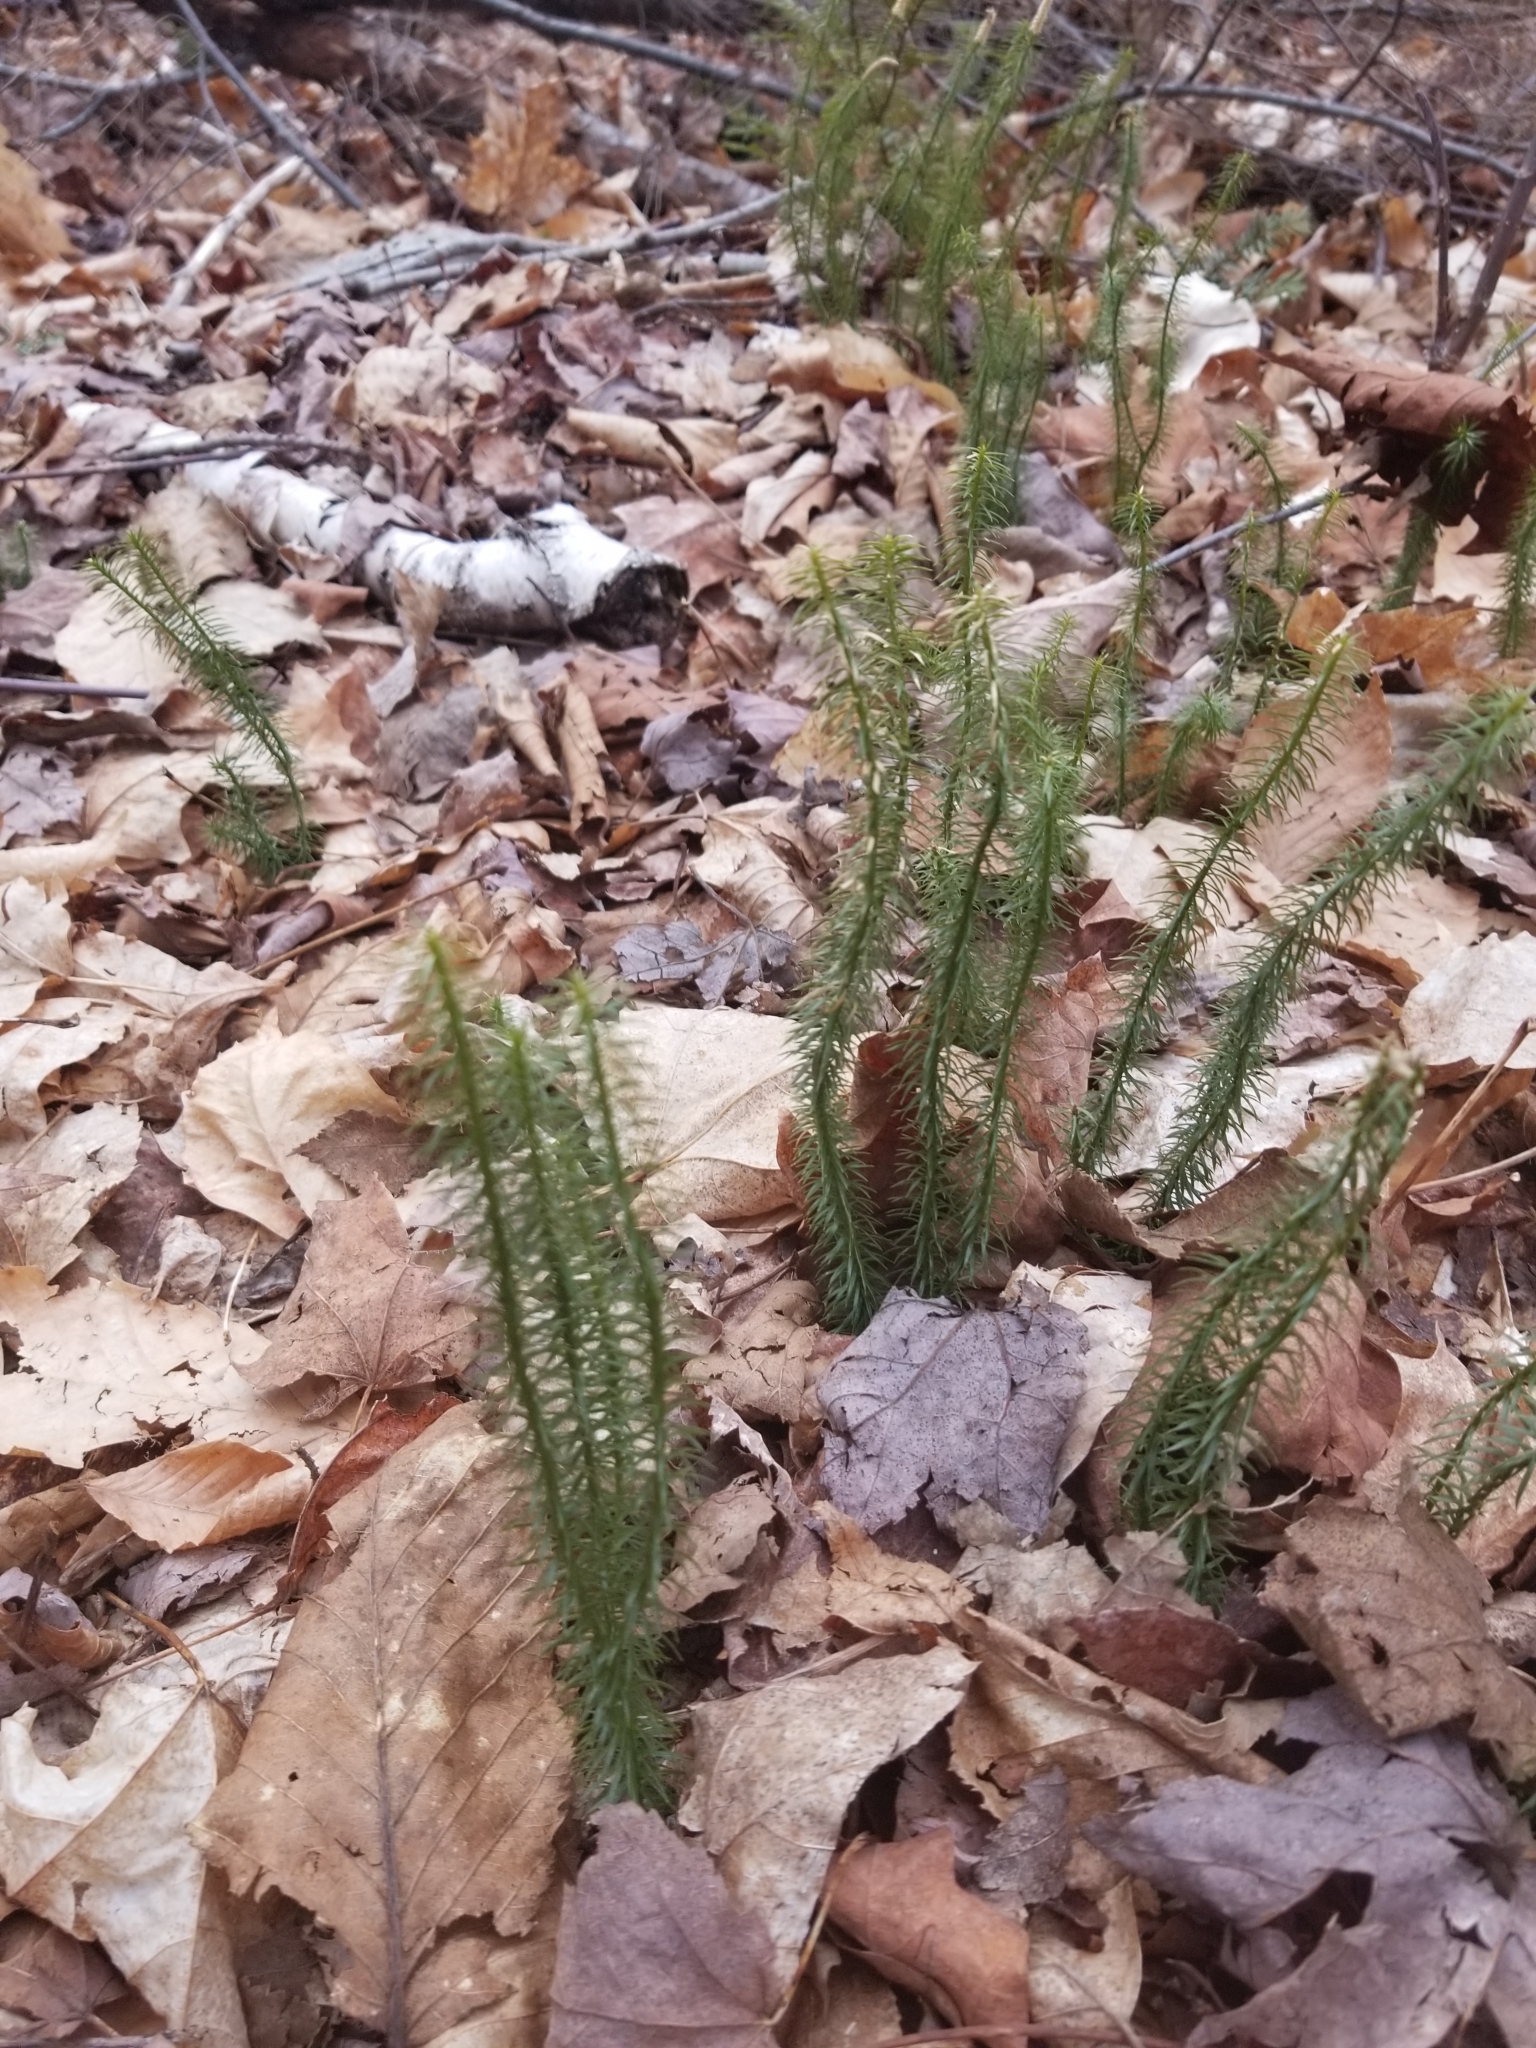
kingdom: Plantae
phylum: Tracheophyta
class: Lycopodiopsida
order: Lycopodiales
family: Lycopodiaceae
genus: Spinulum
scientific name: Spinulum annotinum
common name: Interrupted club-moss
